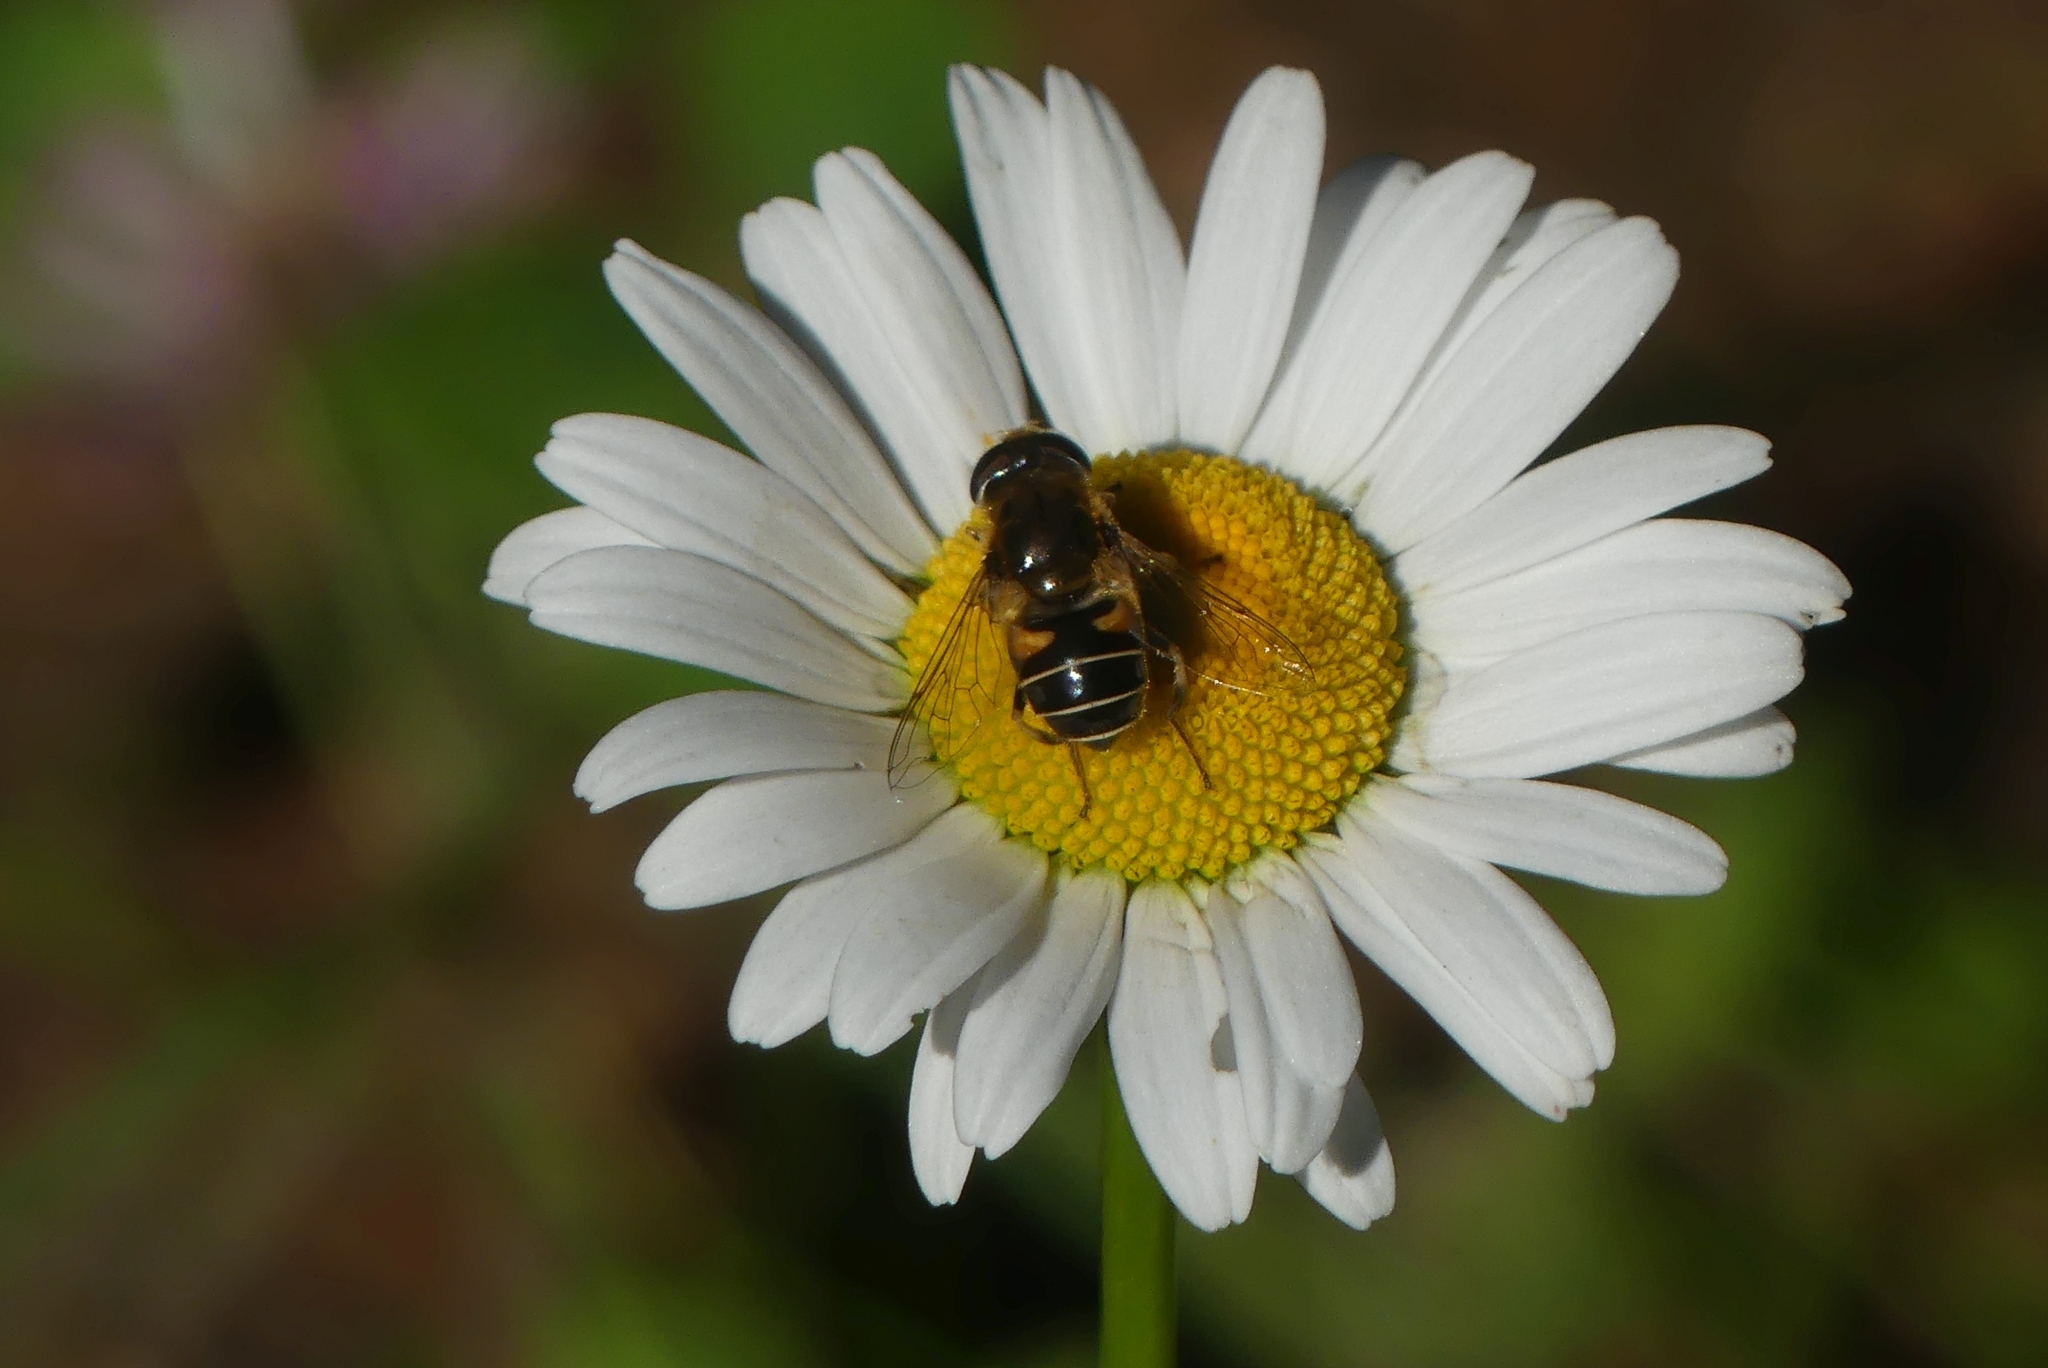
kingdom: Animalia
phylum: Arthropoda
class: Insecta
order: Diptera
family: Syrphidae
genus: Eristalis
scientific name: Eristalis nemorum
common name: Orange-spined drone fly
